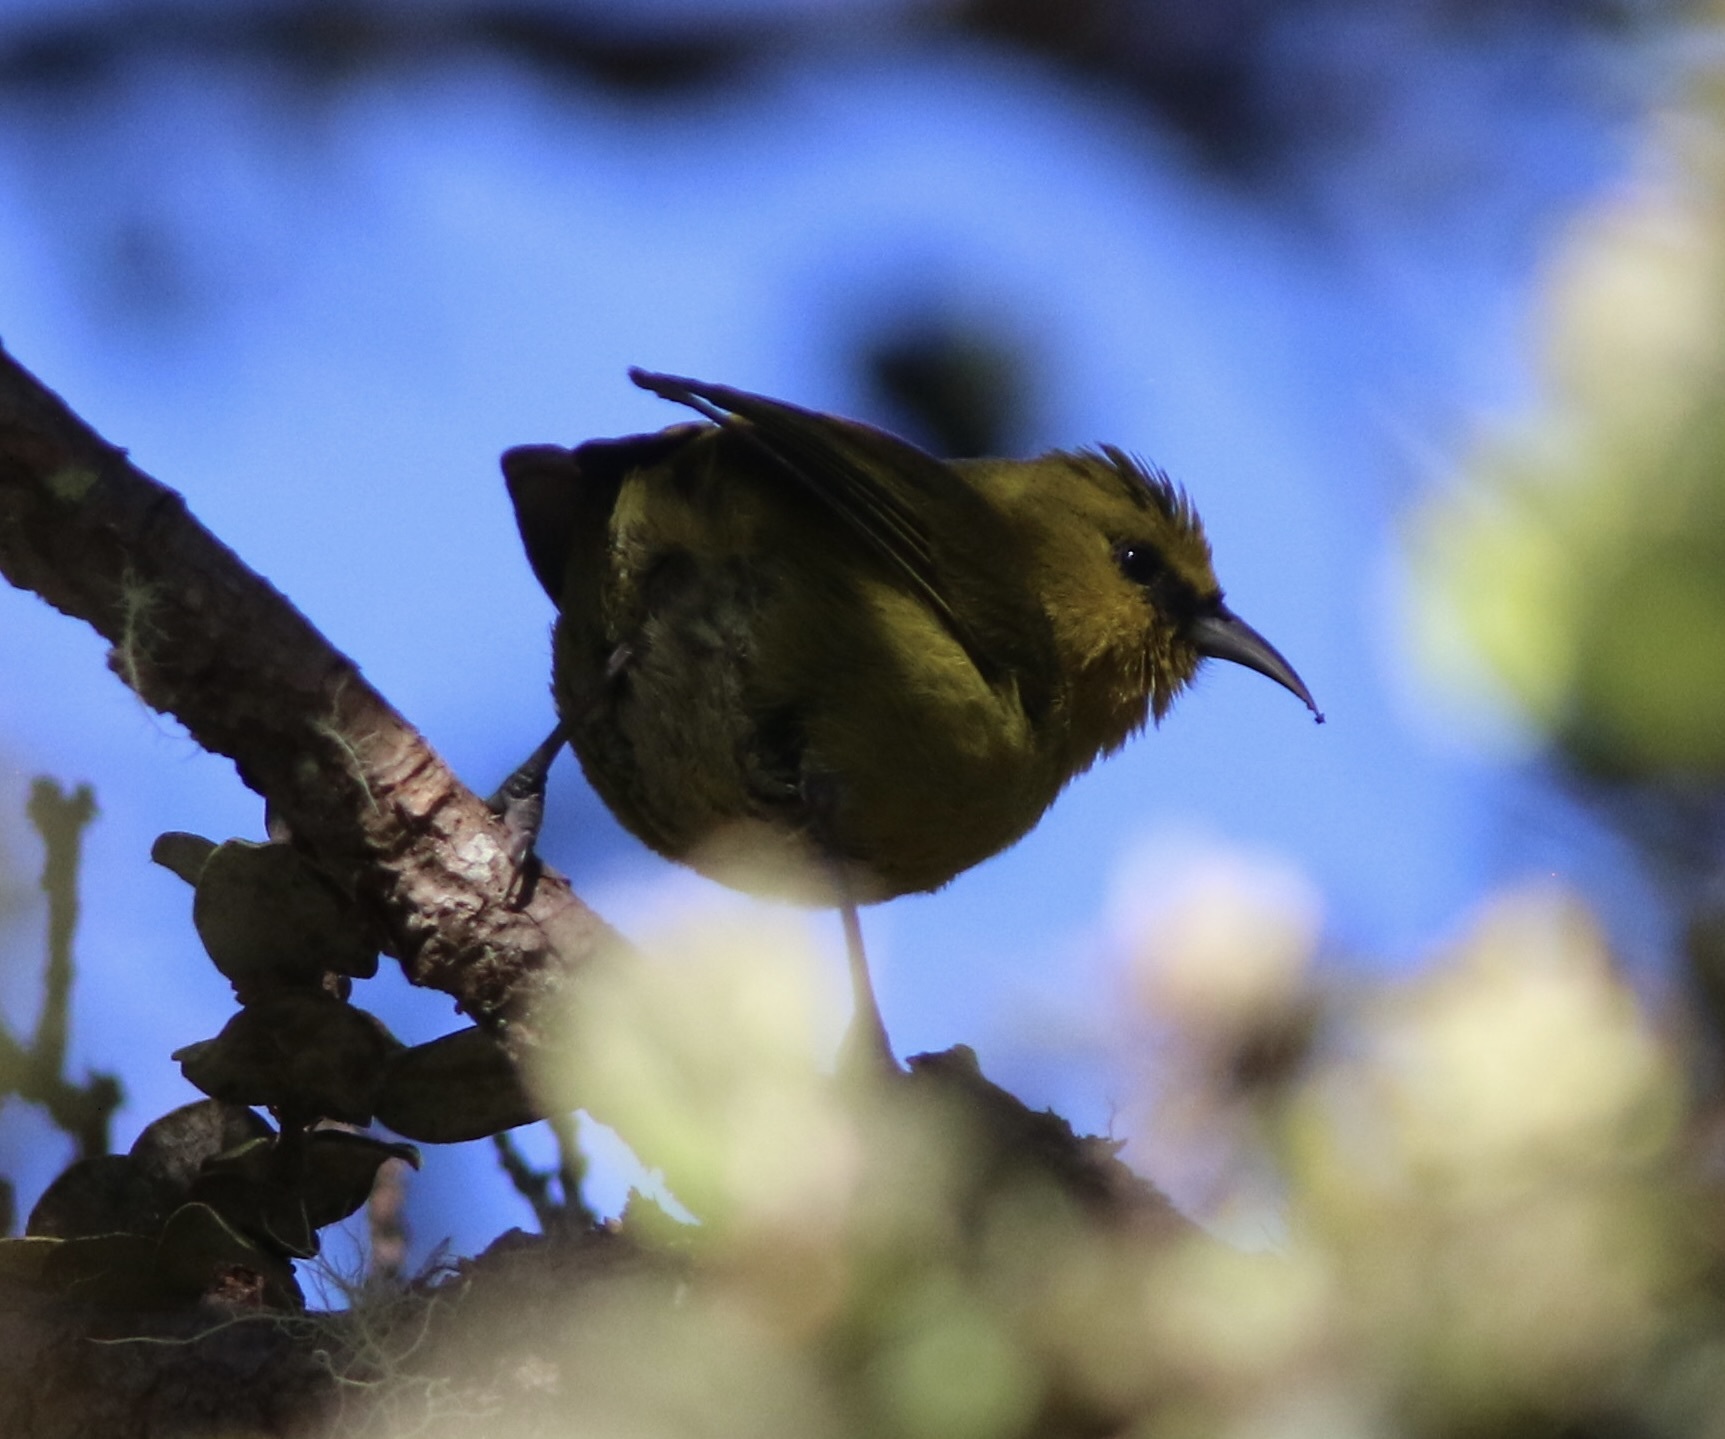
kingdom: Animalia
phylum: Chordata
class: Aves
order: Passeriformes
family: Fringillidae
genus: Chlorodrepanis
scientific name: Chlorodrepanis virens
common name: Hawaii amakihi
